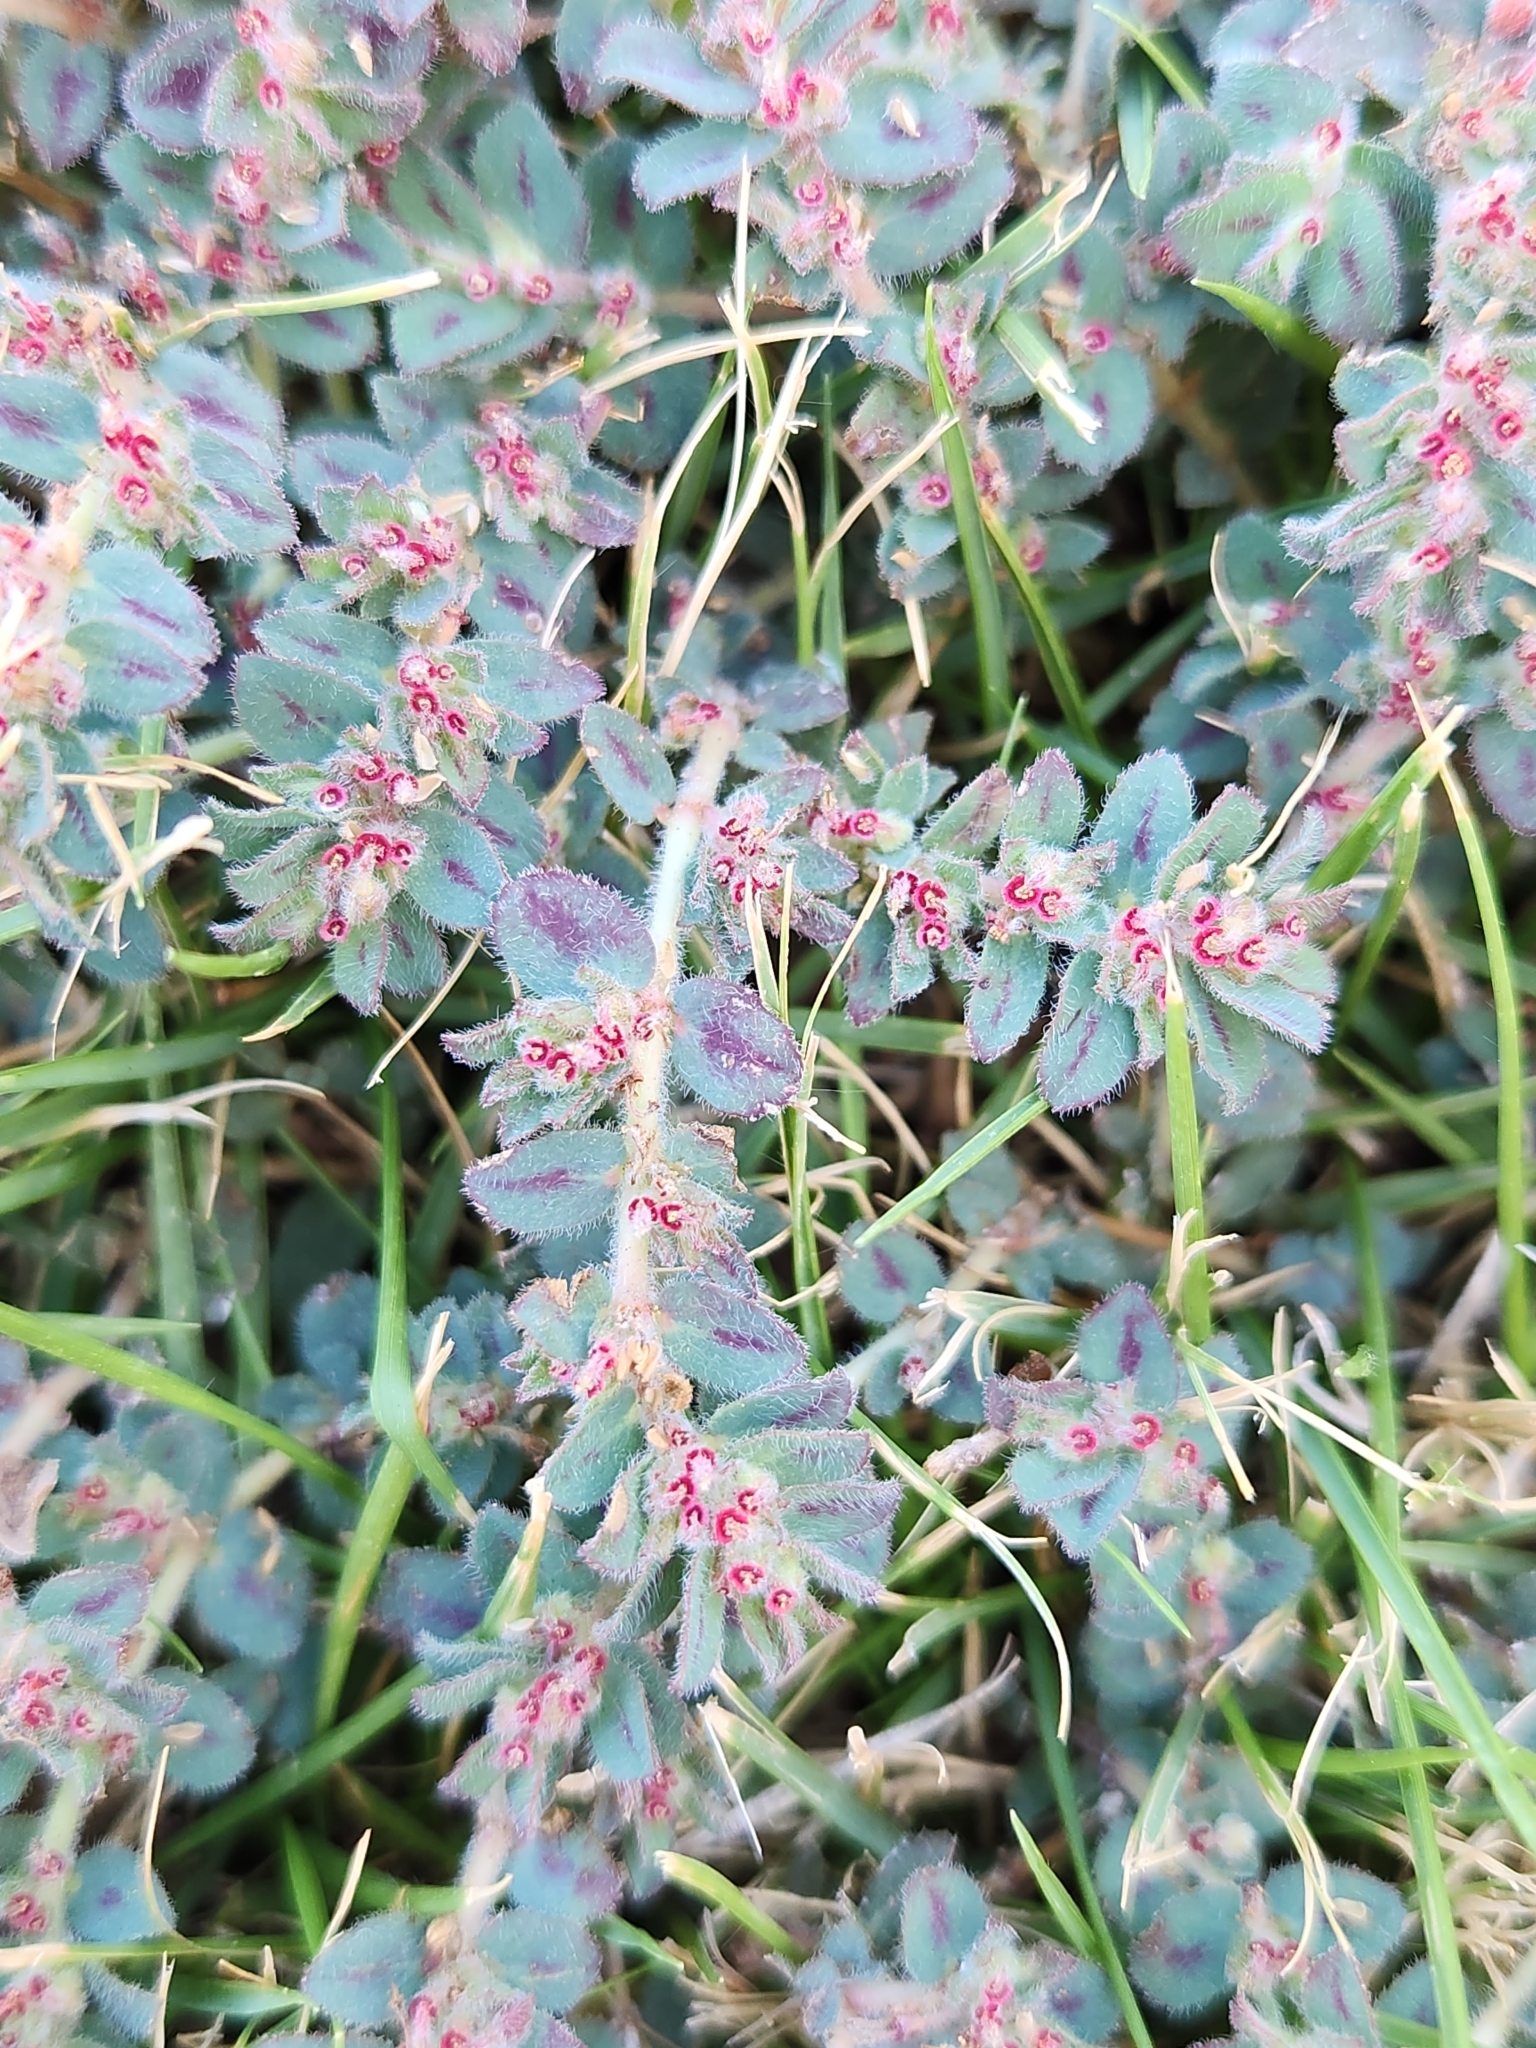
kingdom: Plantae
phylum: Tracheophyta
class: Magnoliopsida
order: Malpighiales
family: Euphorbiaceae
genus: Euphorbia
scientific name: Euphorbia velleriflora
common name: Caliche sandmat
